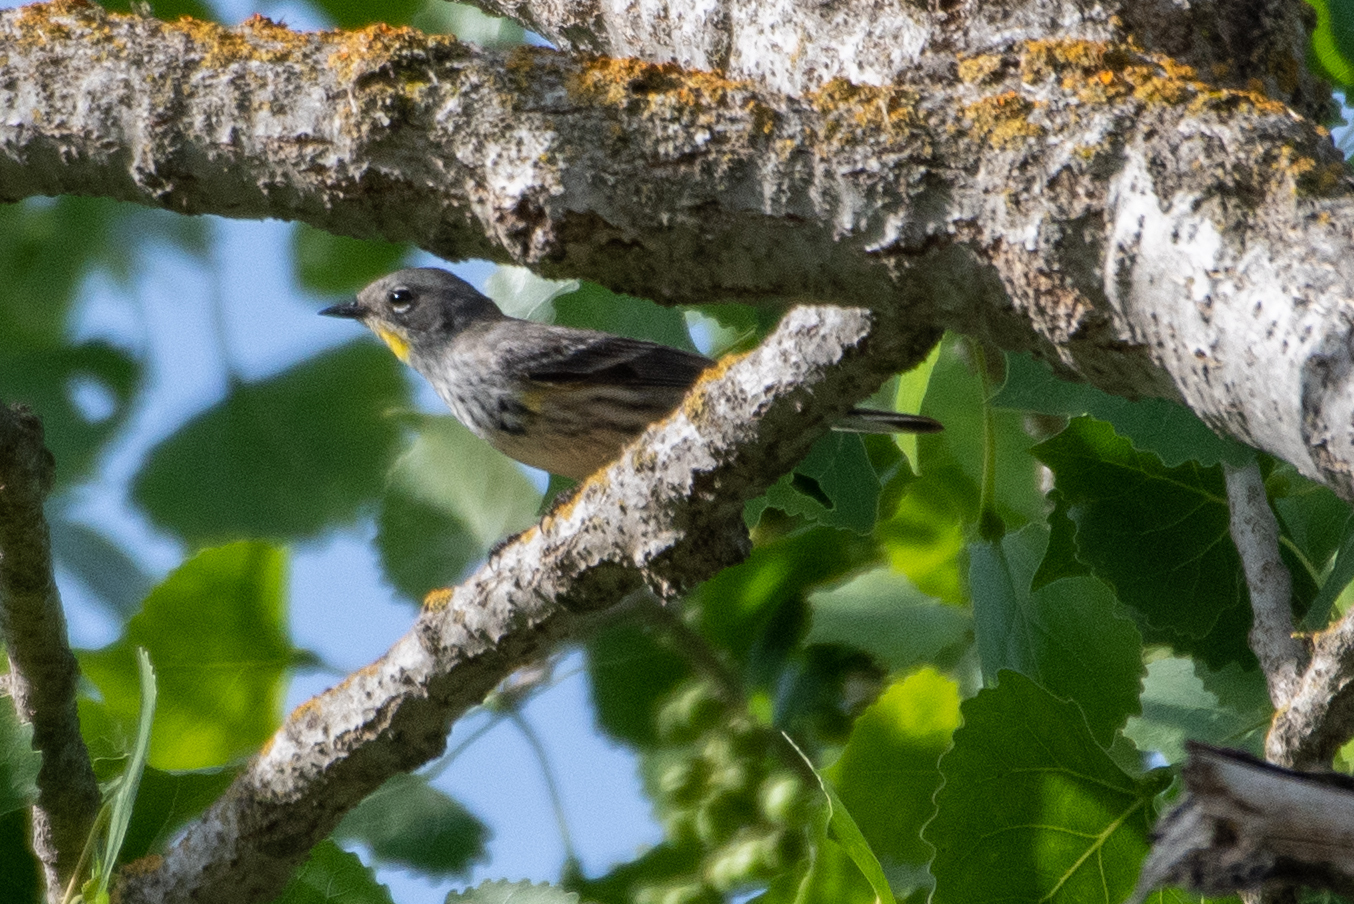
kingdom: Animalia
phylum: Chordata
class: Aves
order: Passeriformes
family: Parulidae
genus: Setophaga
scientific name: Setophaga coronata
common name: Myrtle warbler
